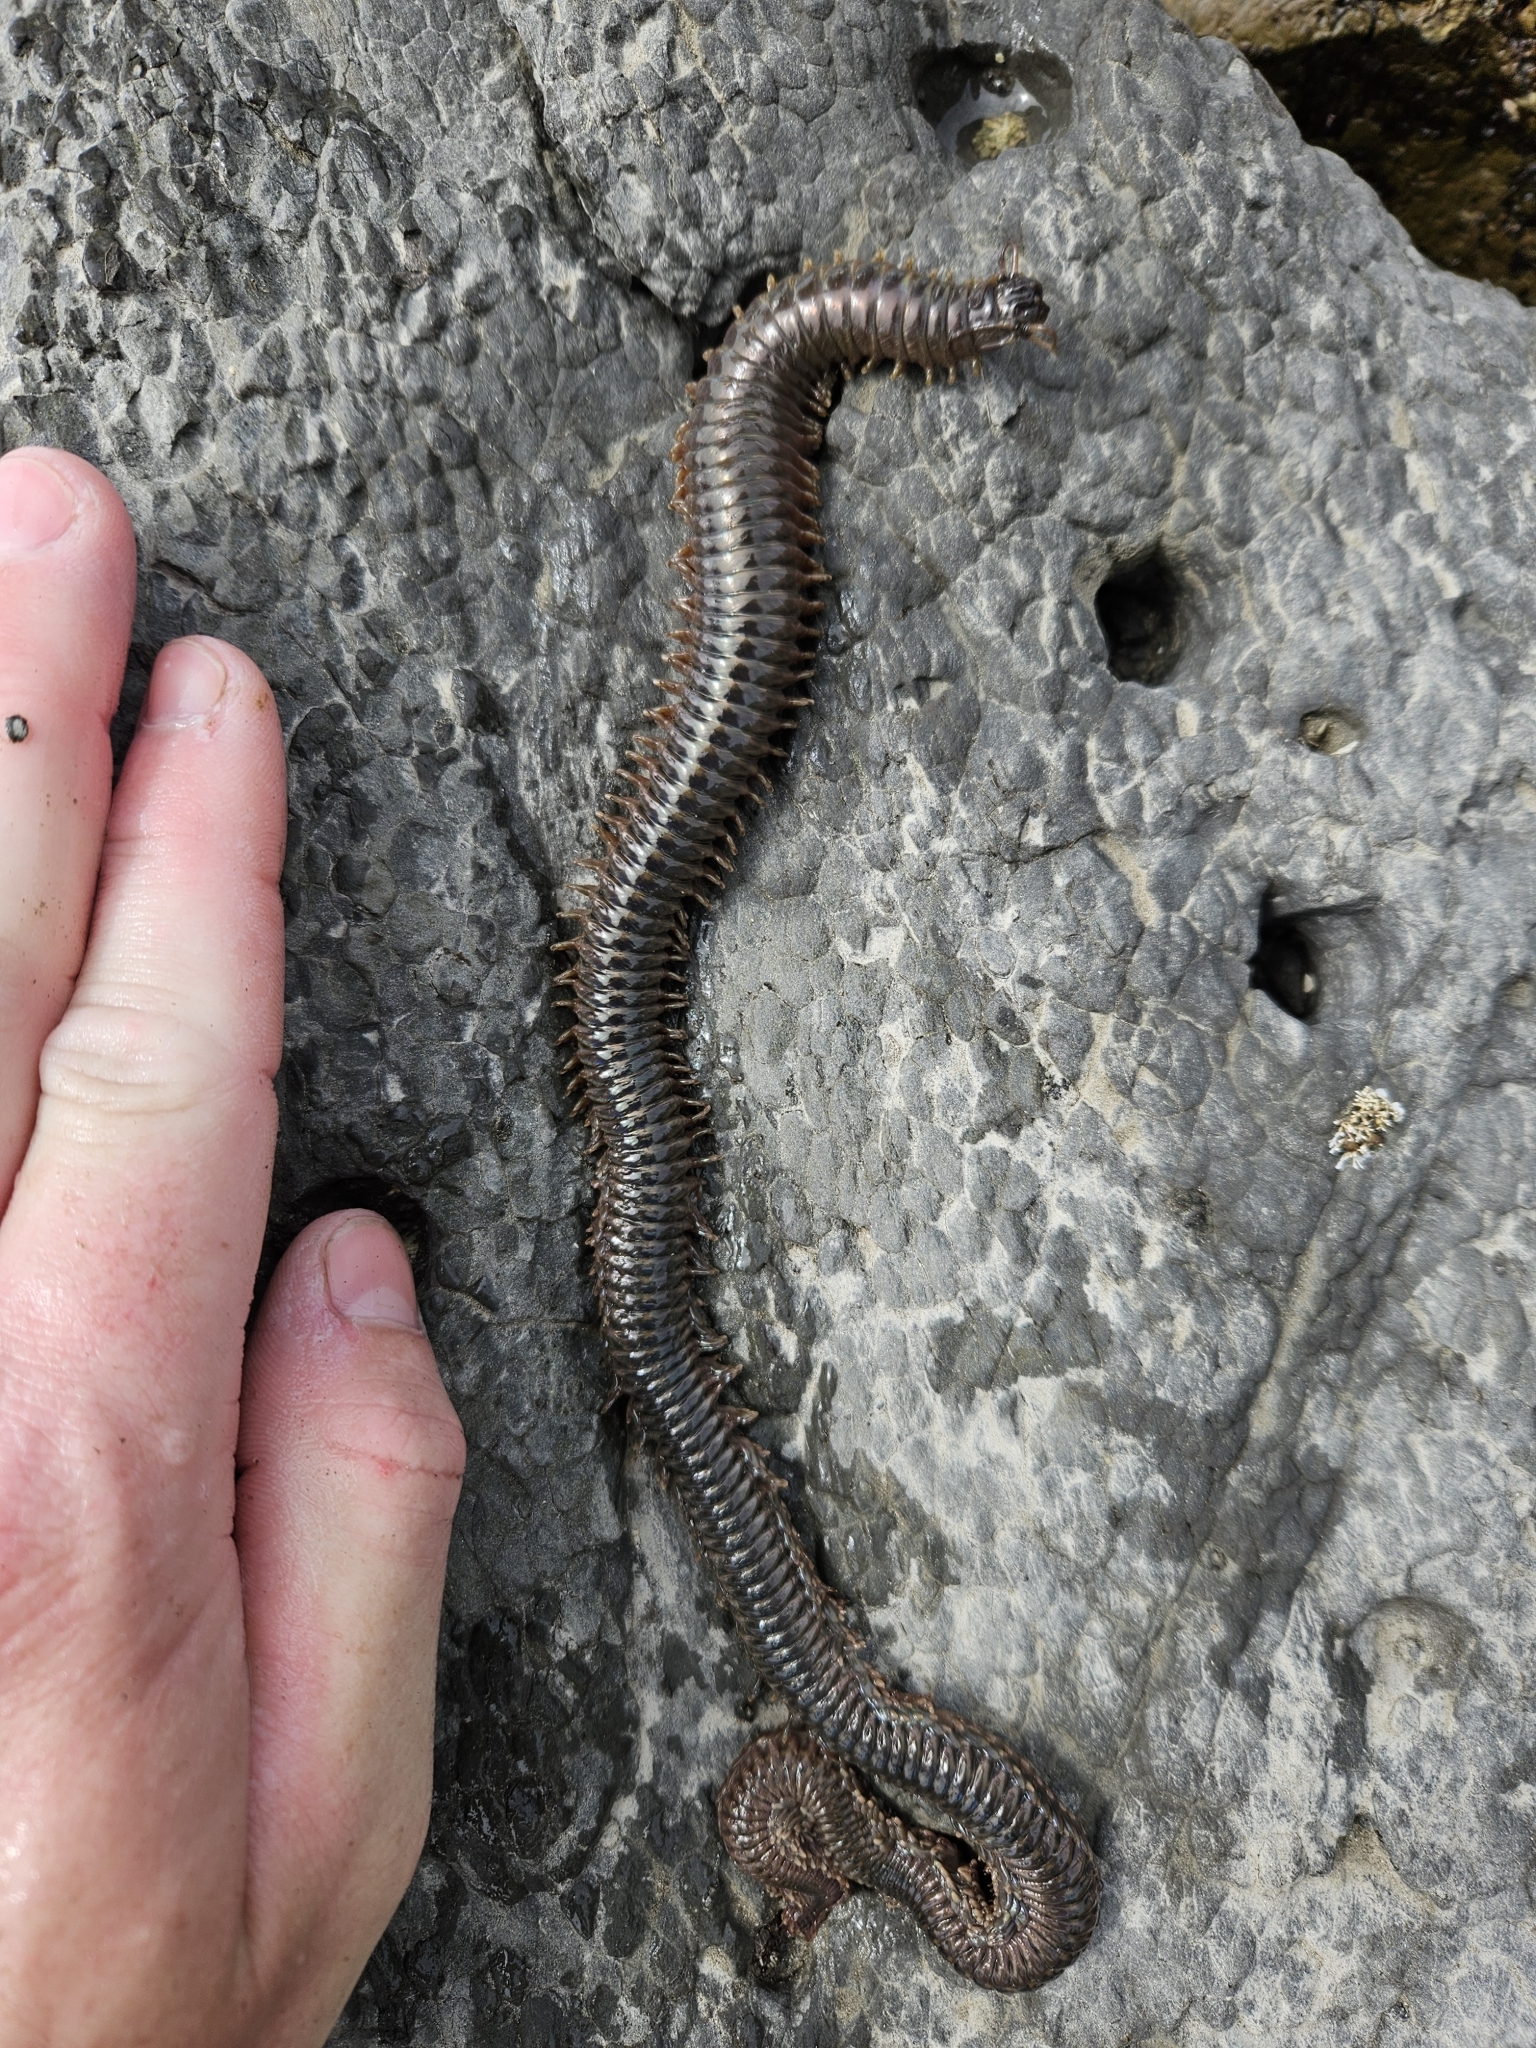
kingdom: Animalia
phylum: Annelida
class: Polychaeta
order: Phyllodocida
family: Nereididae
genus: Perinereis
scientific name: Perinereis amblyodonta
